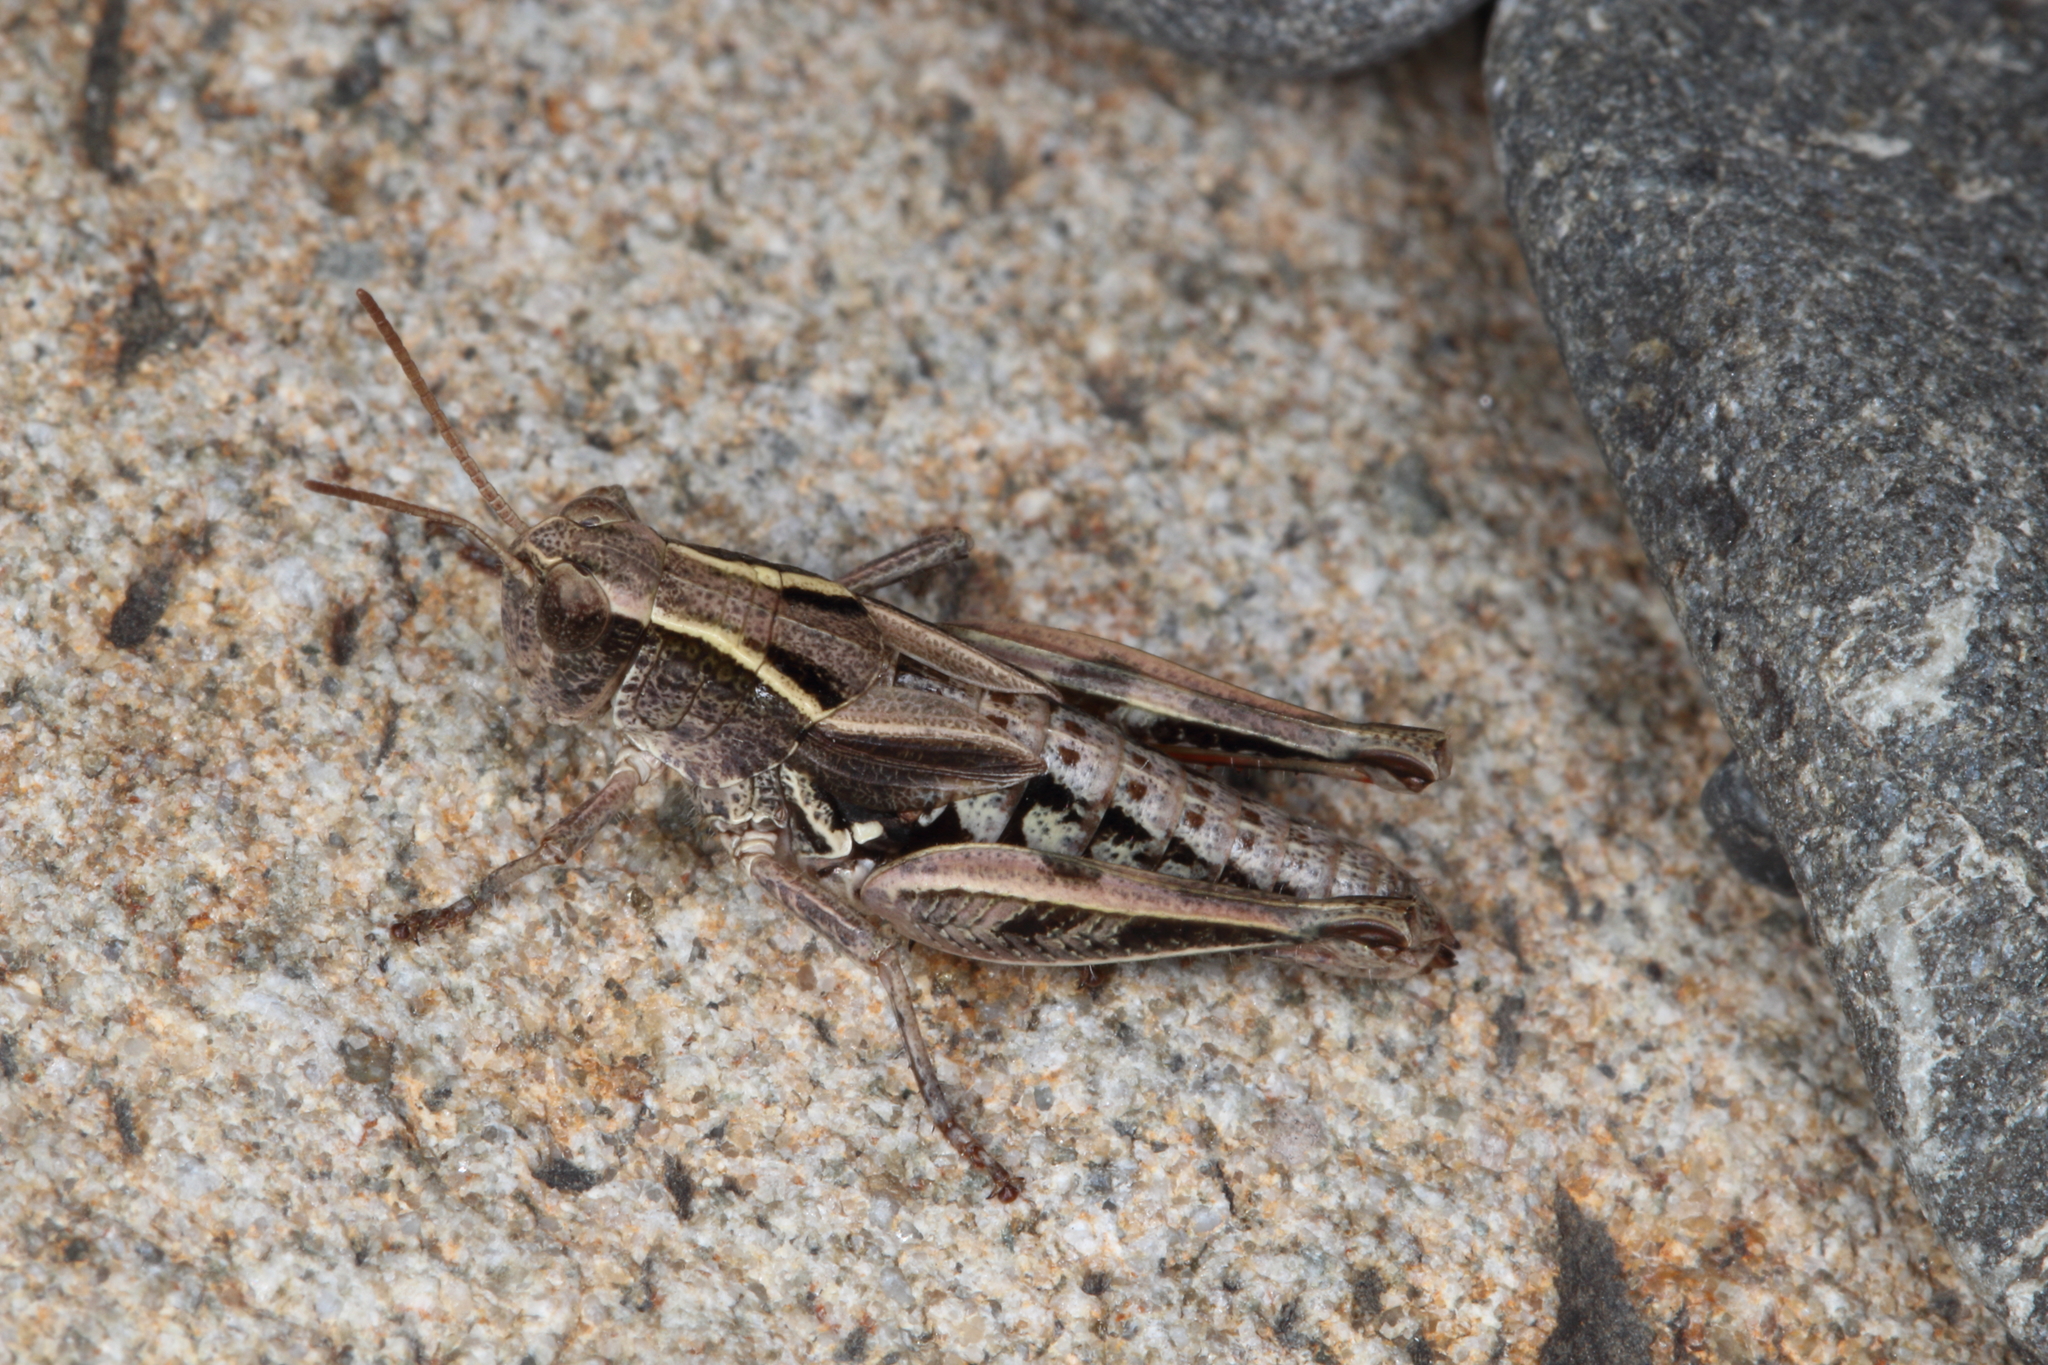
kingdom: Animalia
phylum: Arthropoda
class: Insecta
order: Orthoptera
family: Acrididae
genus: Phaulacridium
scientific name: Phaulacridium marginale
